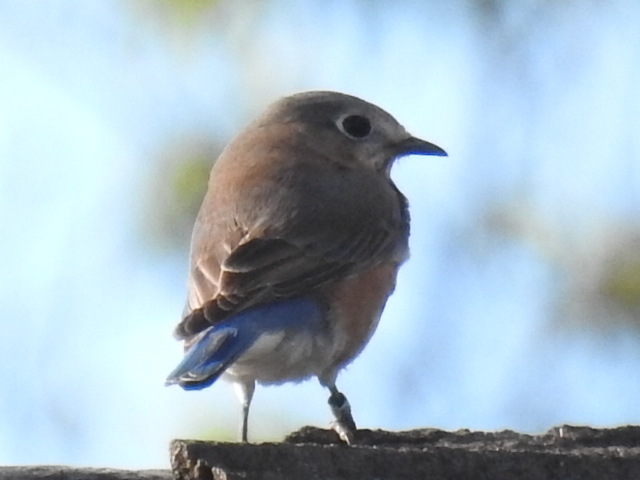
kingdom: Animalia
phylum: Chordata
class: Aves
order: Passeriformes
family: Turdidae
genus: Sialia
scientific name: Sialia sialis
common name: Eastern bluebird
